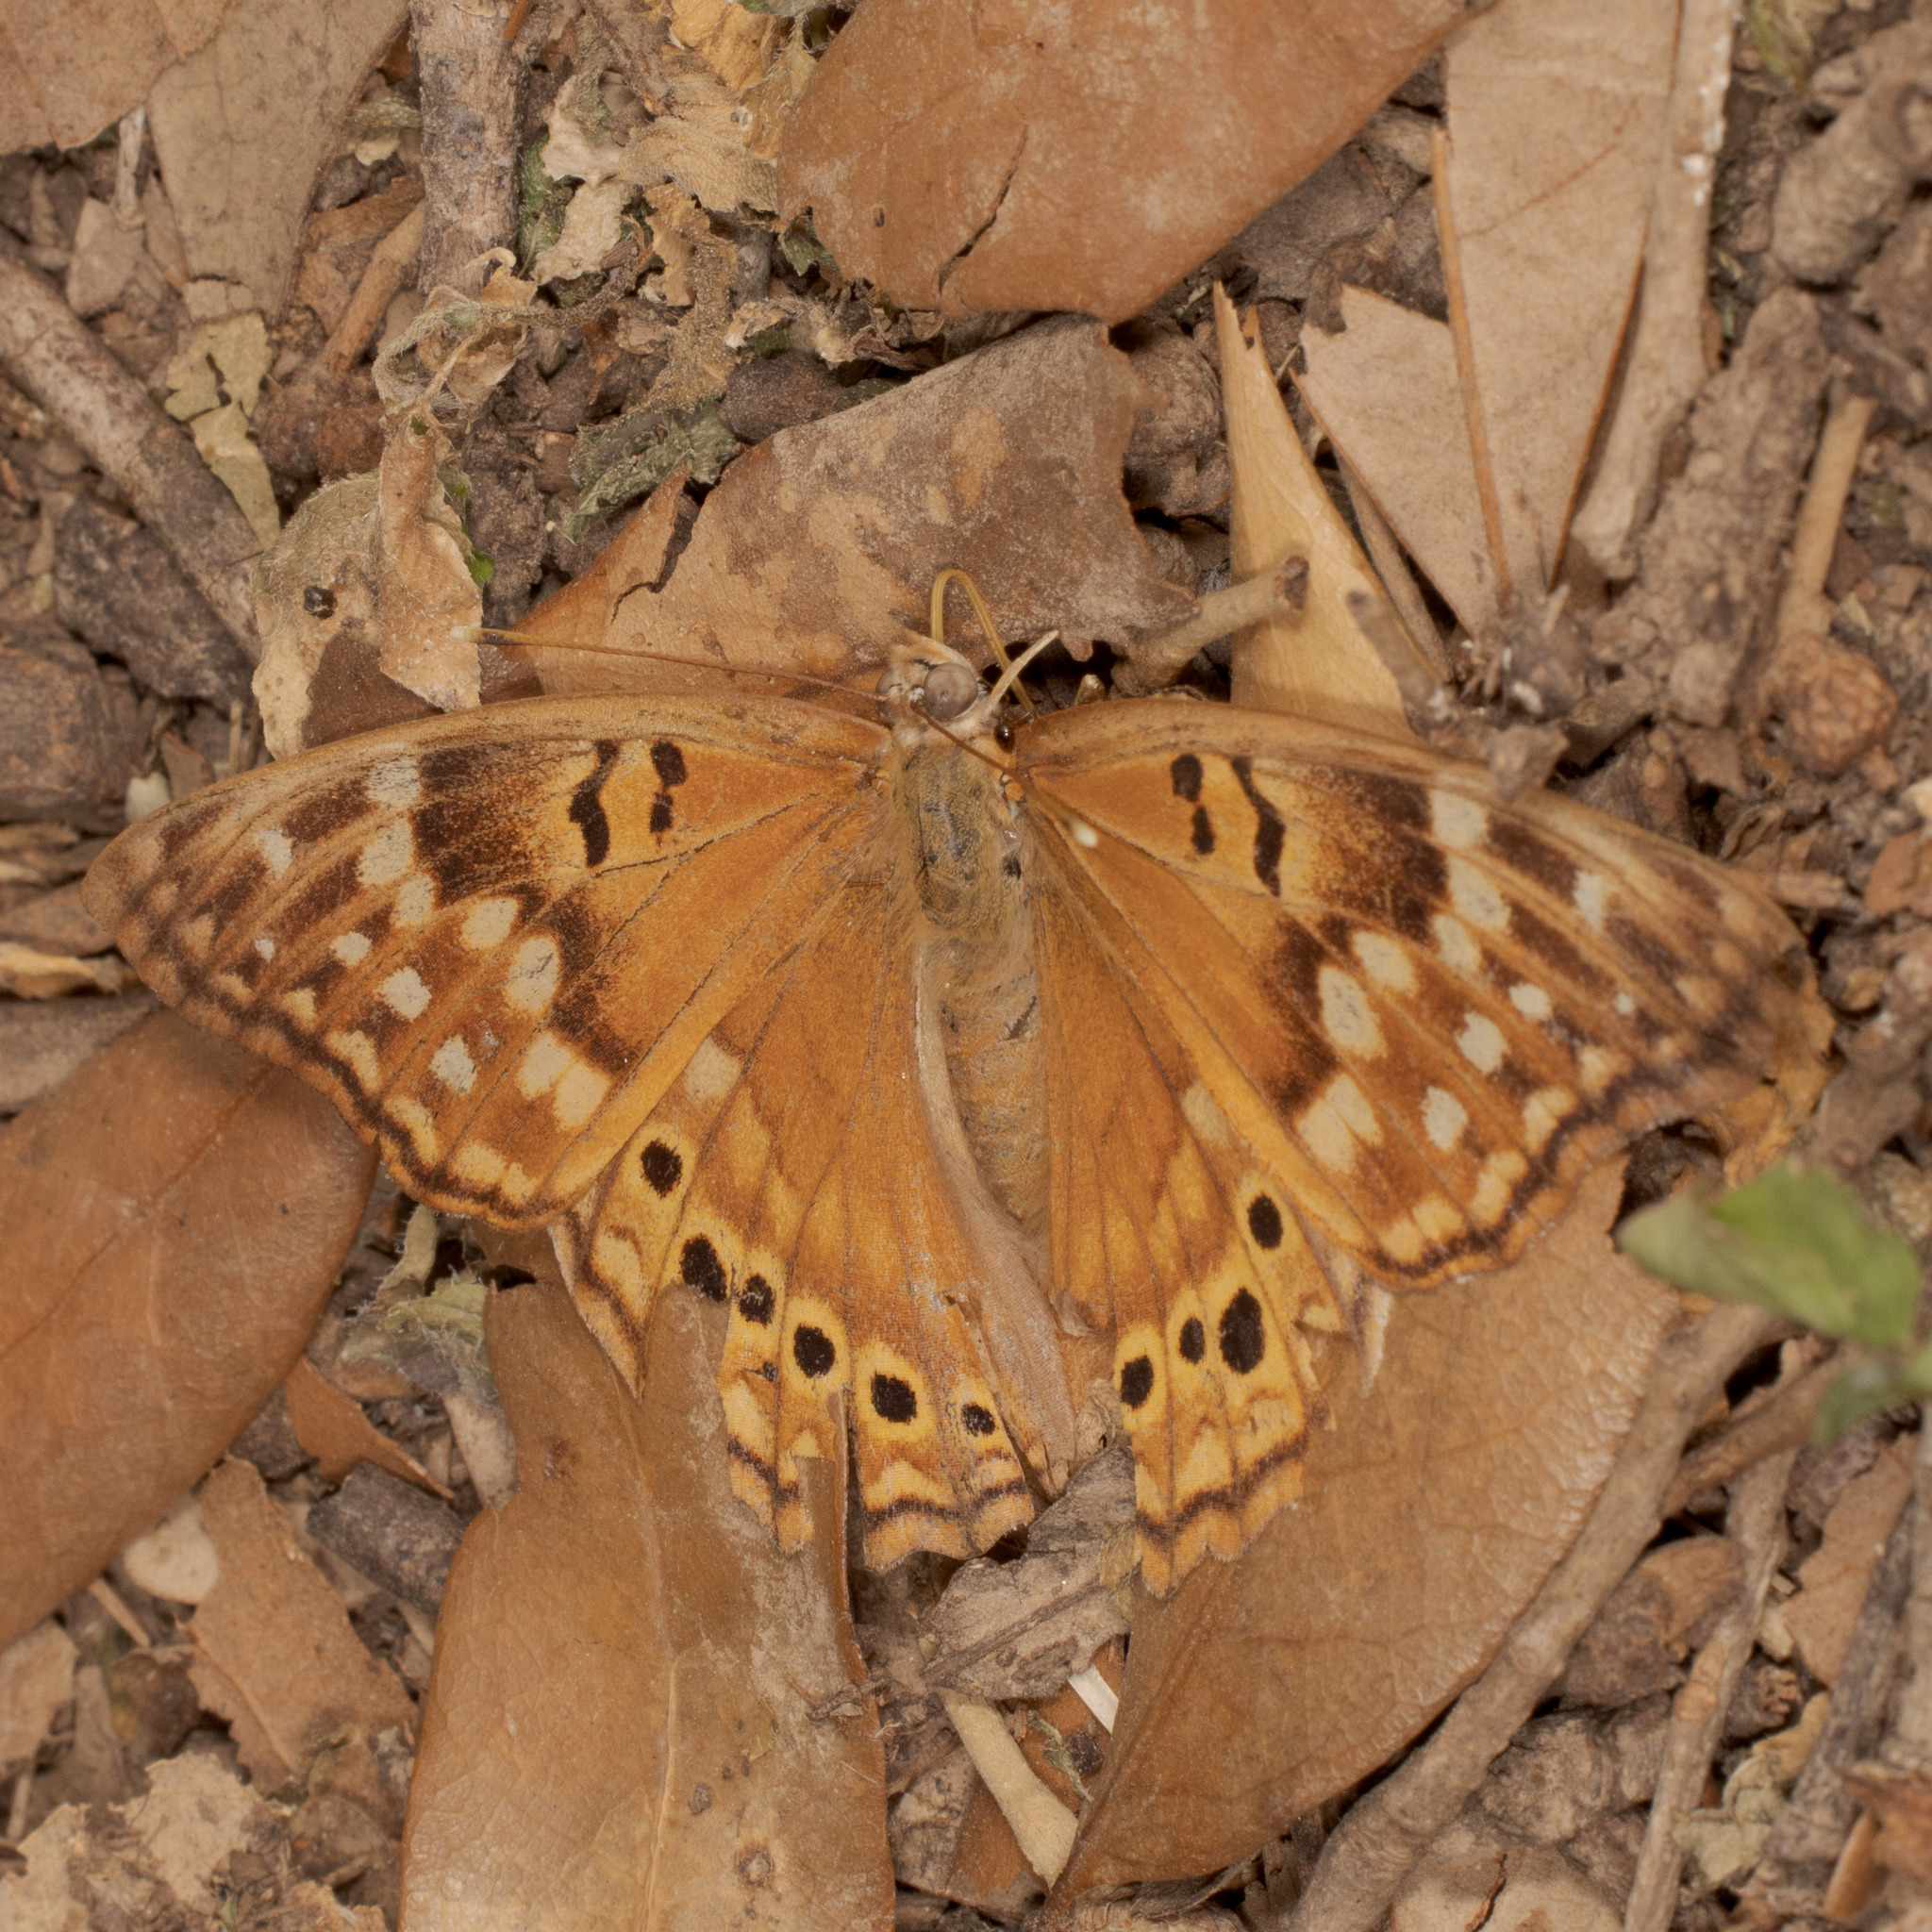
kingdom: Animalia
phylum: Arthropoda
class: Insecta
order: Lepidoptera
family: Nymphalidae
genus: Asterocampa
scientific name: Asterocampa clyton
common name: Tawny emperor
